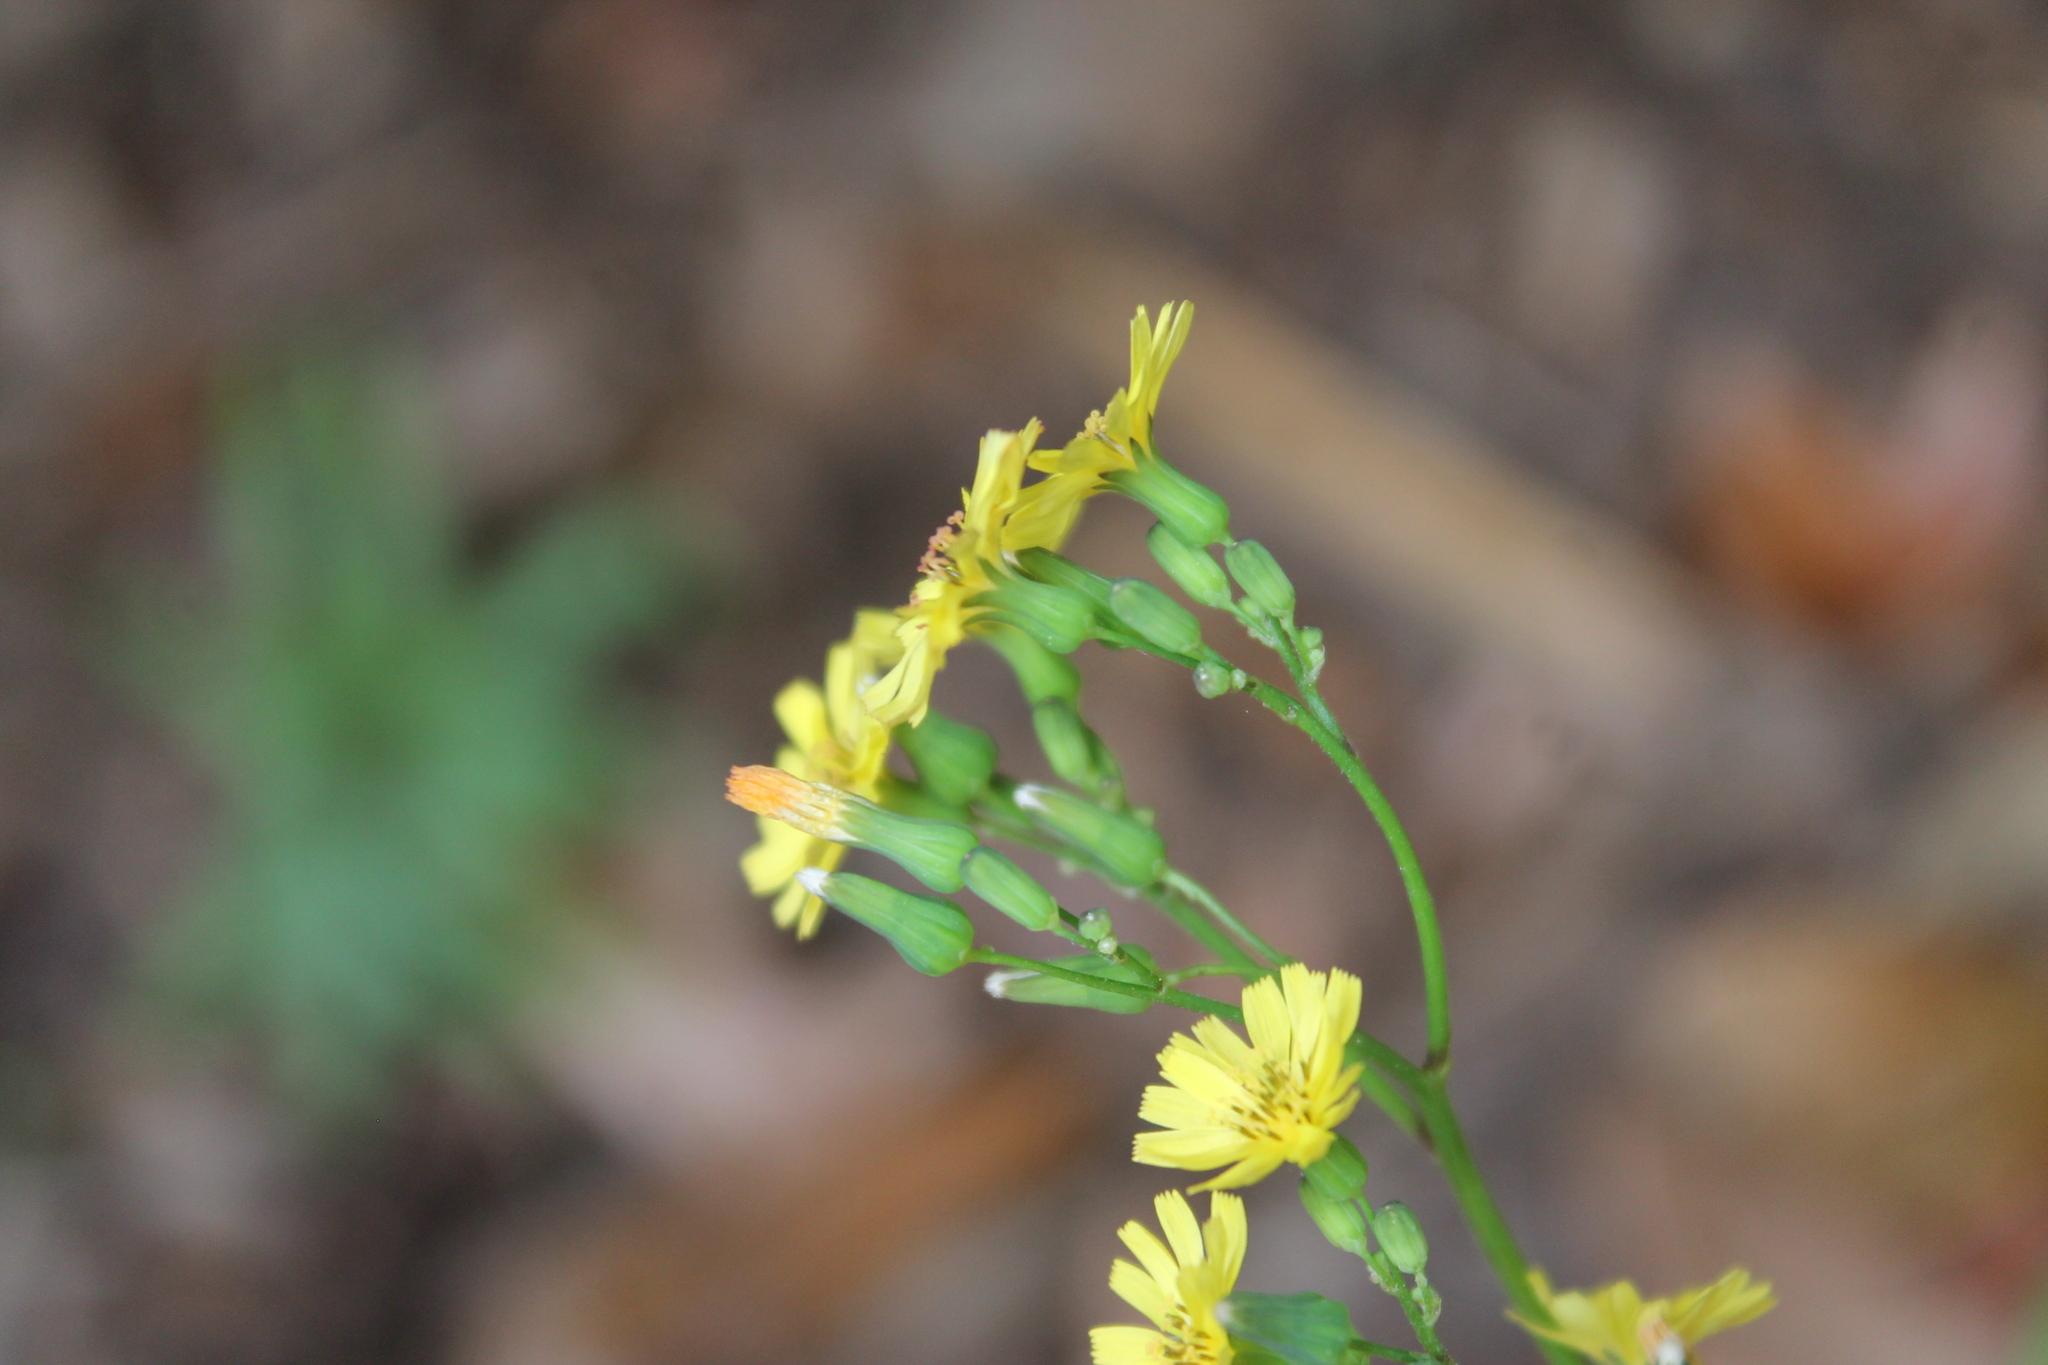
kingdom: Plantae
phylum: Tracheophyta
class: Magnoliopsida
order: Asterales
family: Asteraceae
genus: Youngia
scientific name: Youngia japonica
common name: Oriental false hawksbeard
